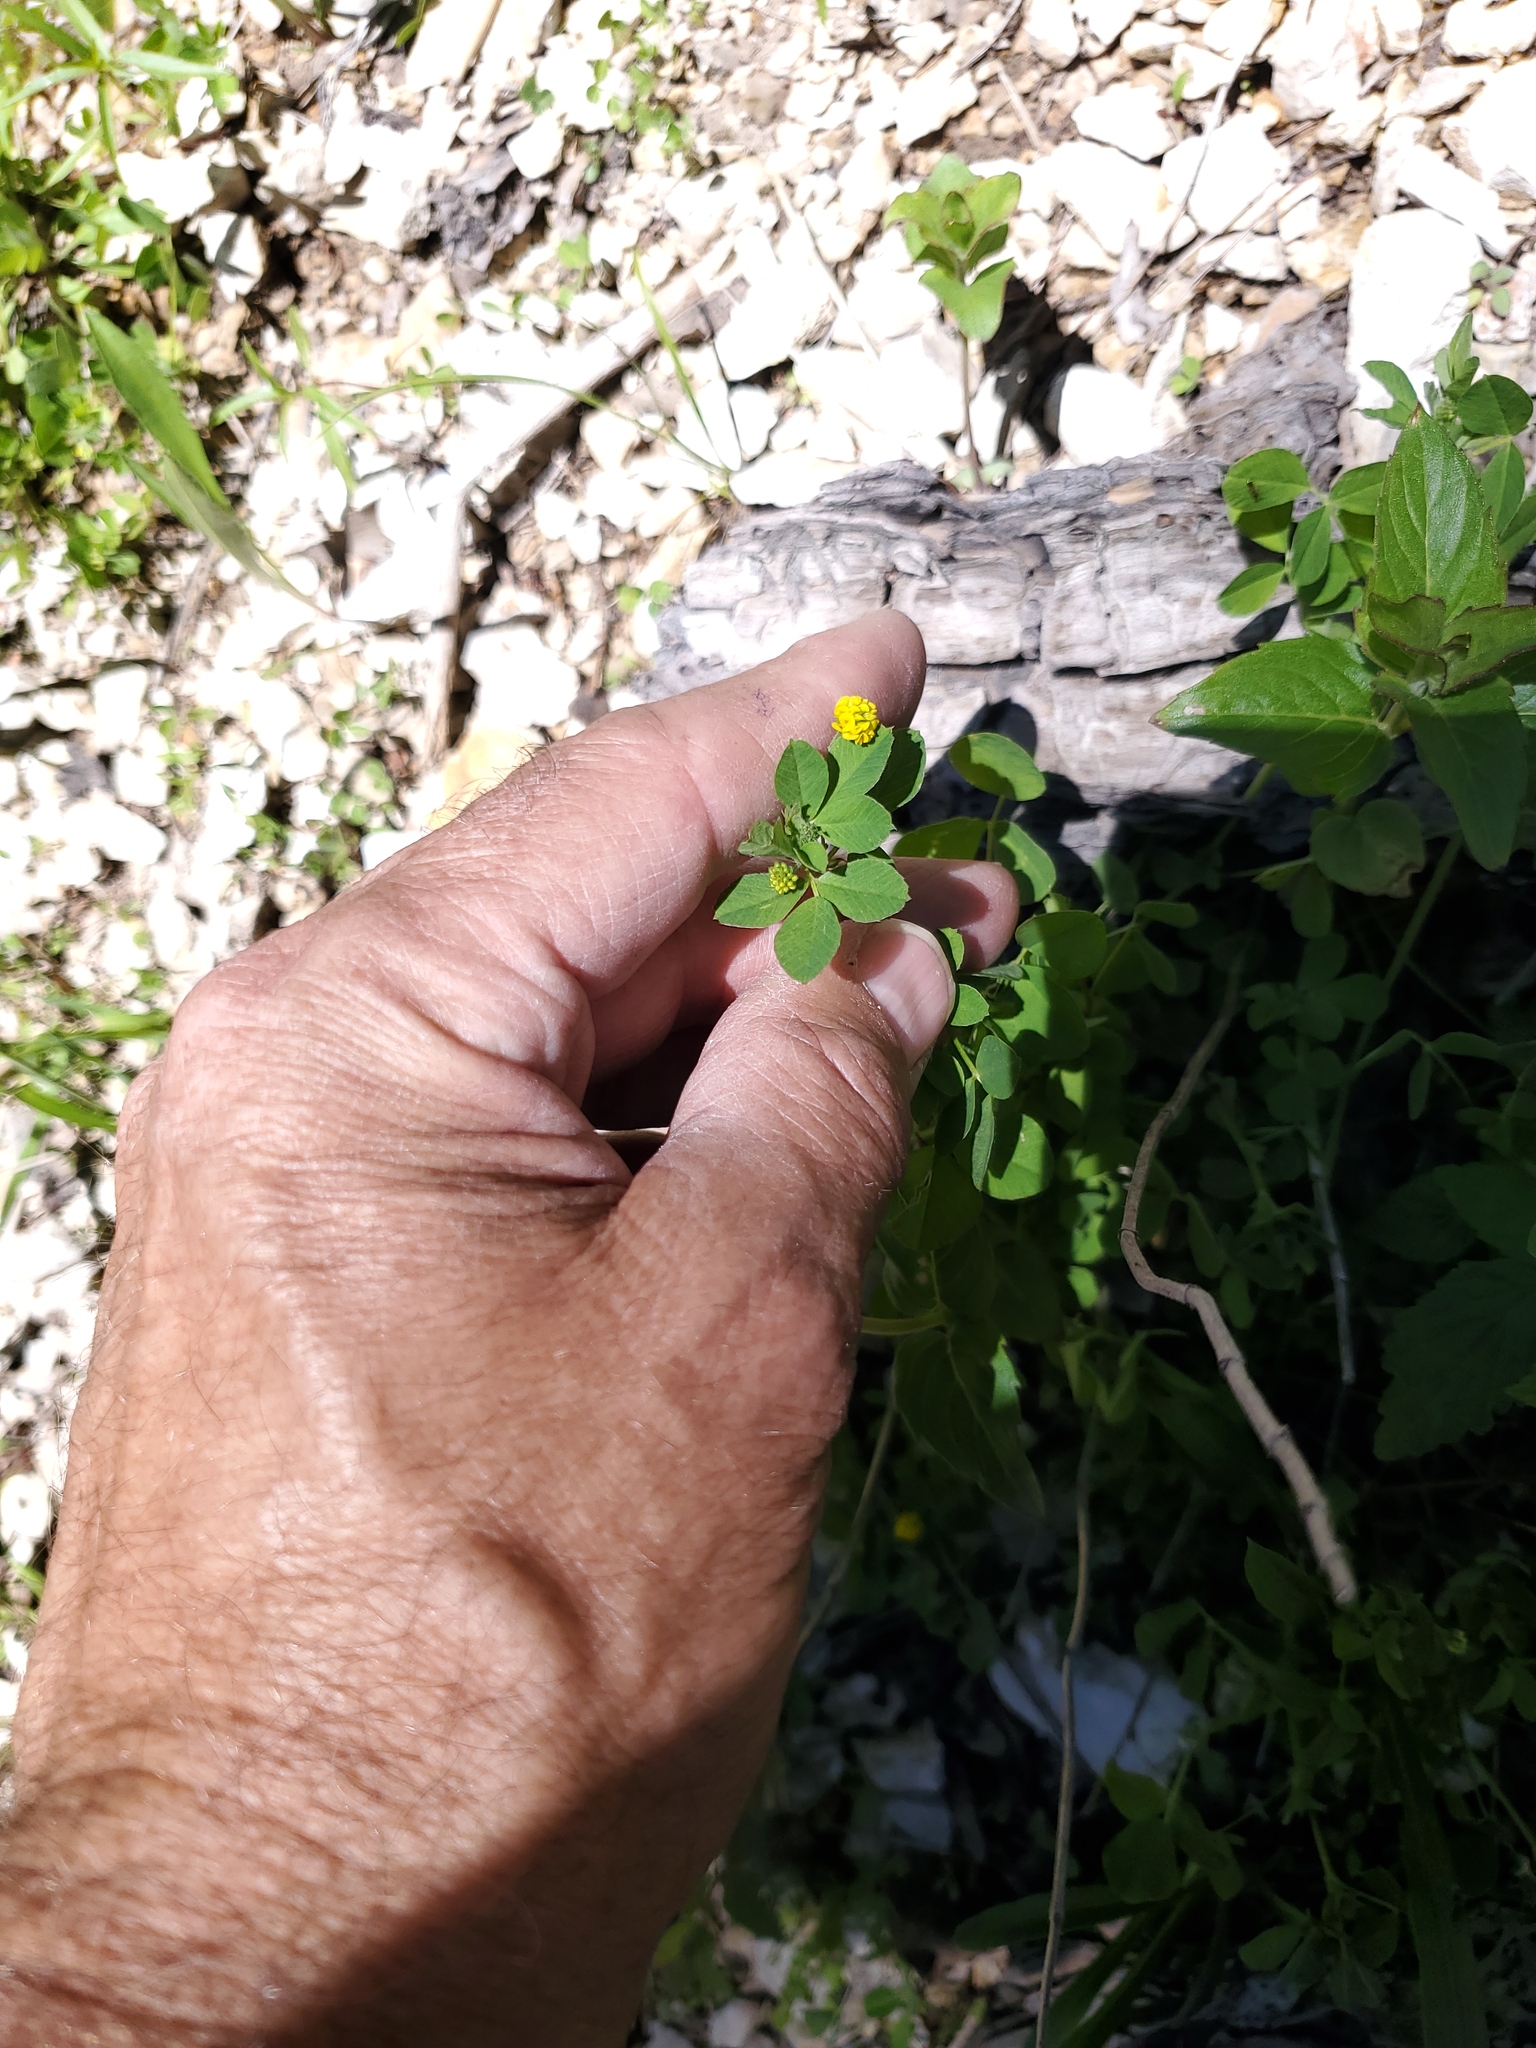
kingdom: Plantae
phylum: Tracheophyta
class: Magnoliopsida
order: Fabales
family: Fabaceae
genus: Medicago
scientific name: Medicago lupulina
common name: Black medick
